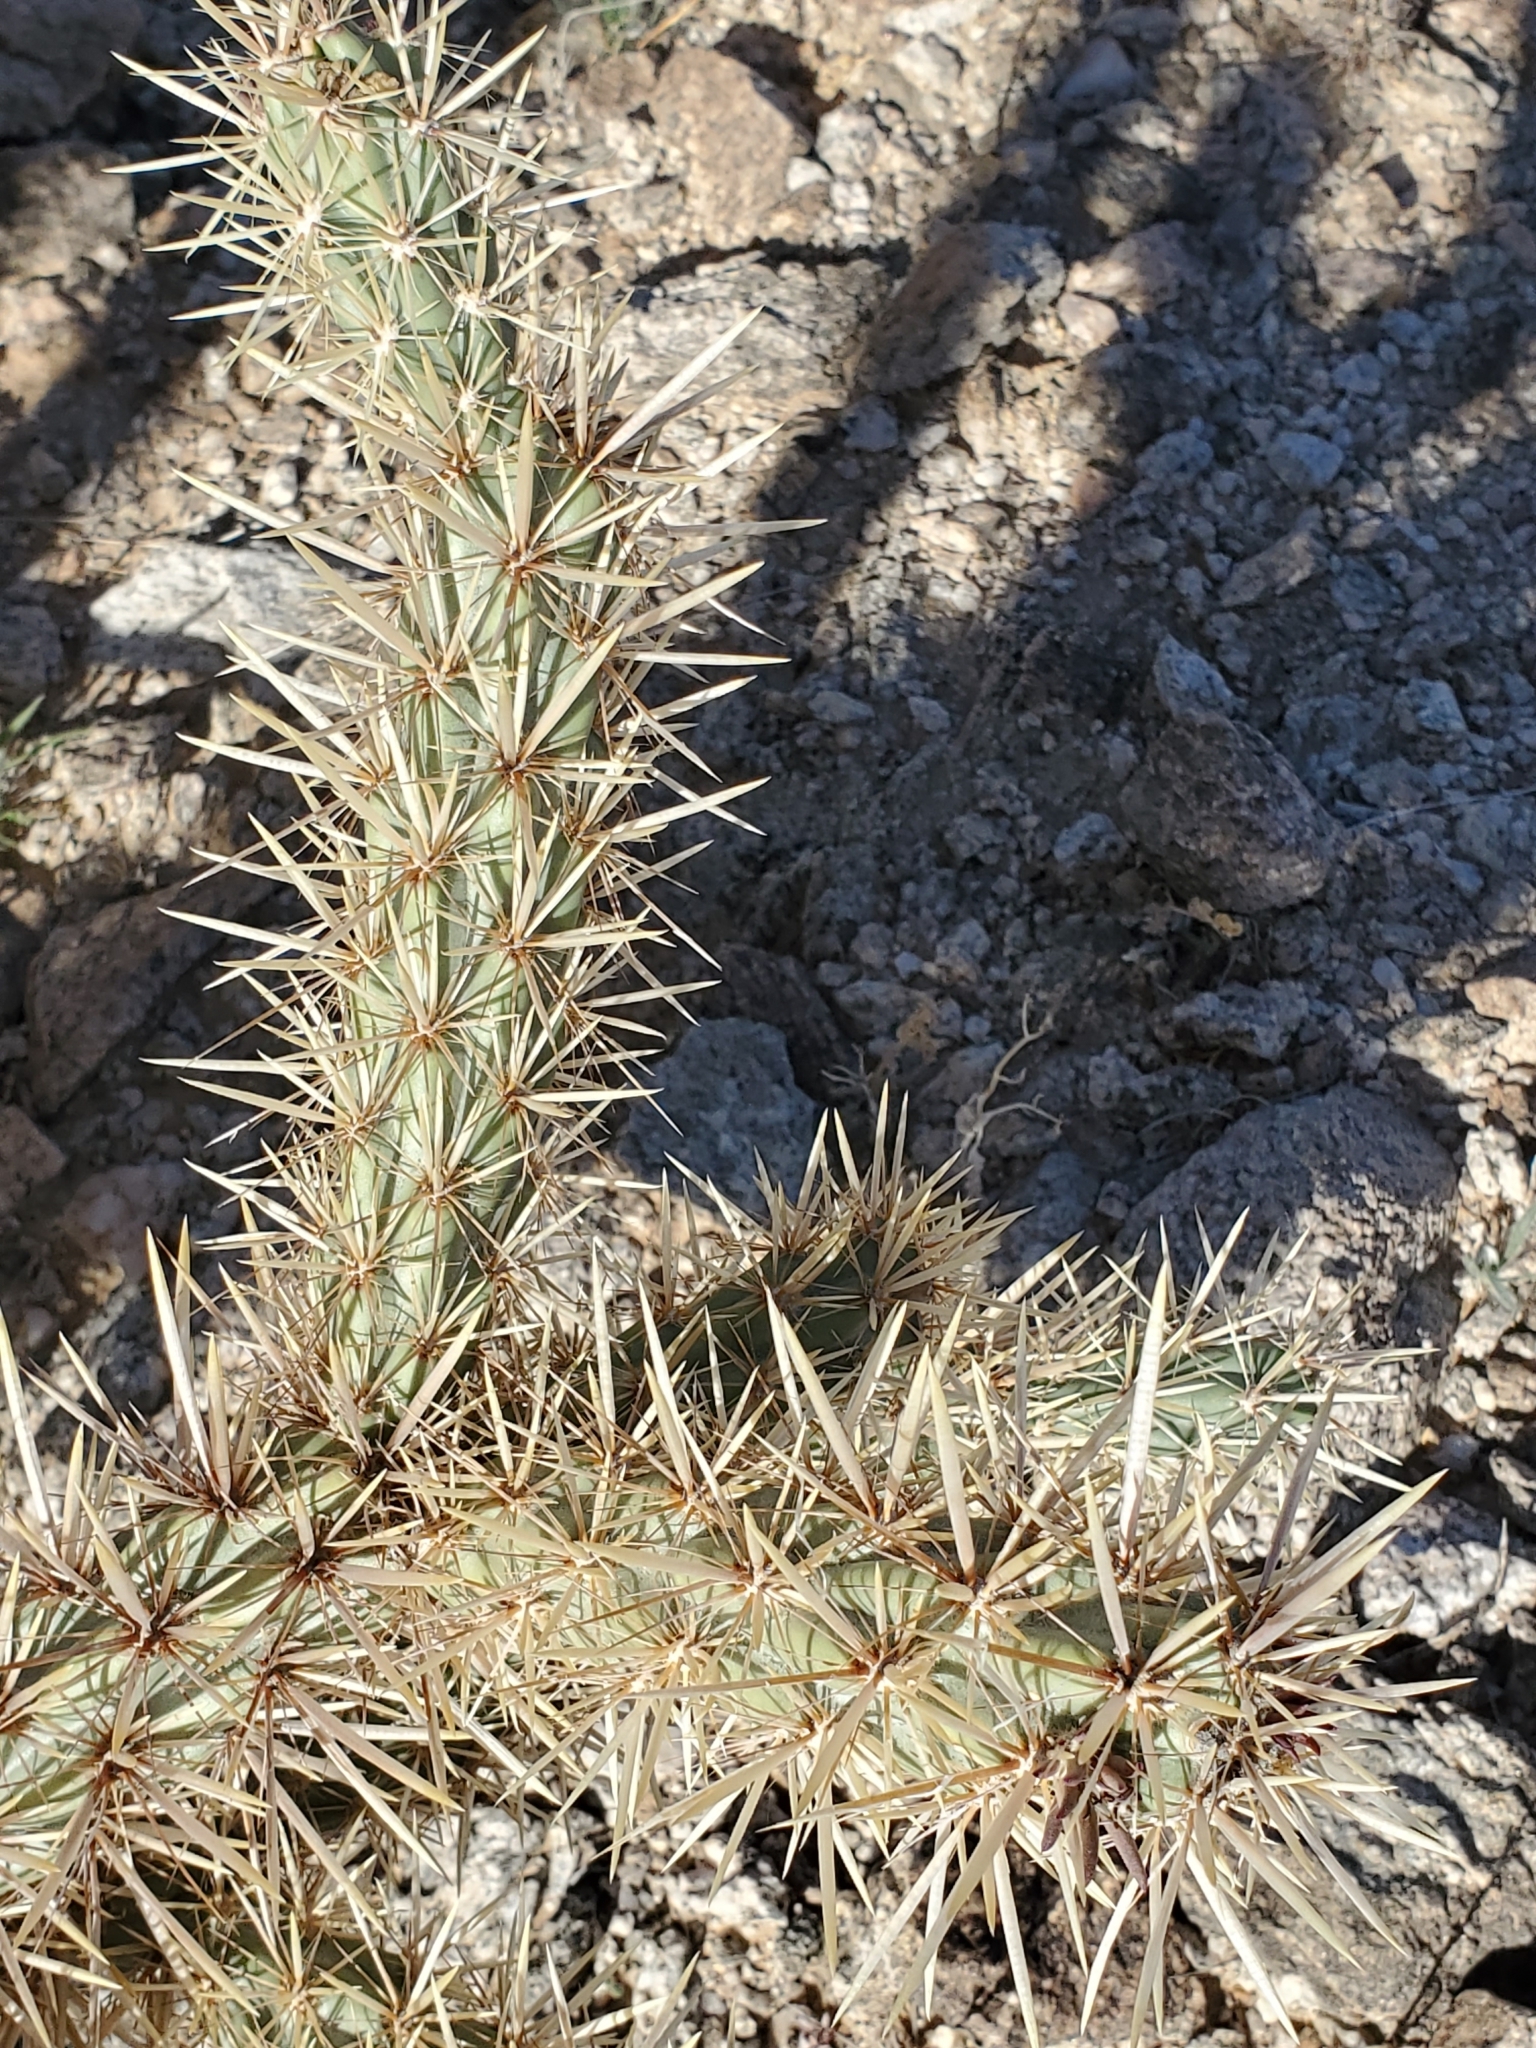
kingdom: Plantae
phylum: Tracheophyta
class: Magnoliopsida
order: Caryophyllales
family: Cactaceae
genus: Cylindropuntia
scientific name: Cylindropuntia acanthocarpa
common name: Buckhorn cholla
